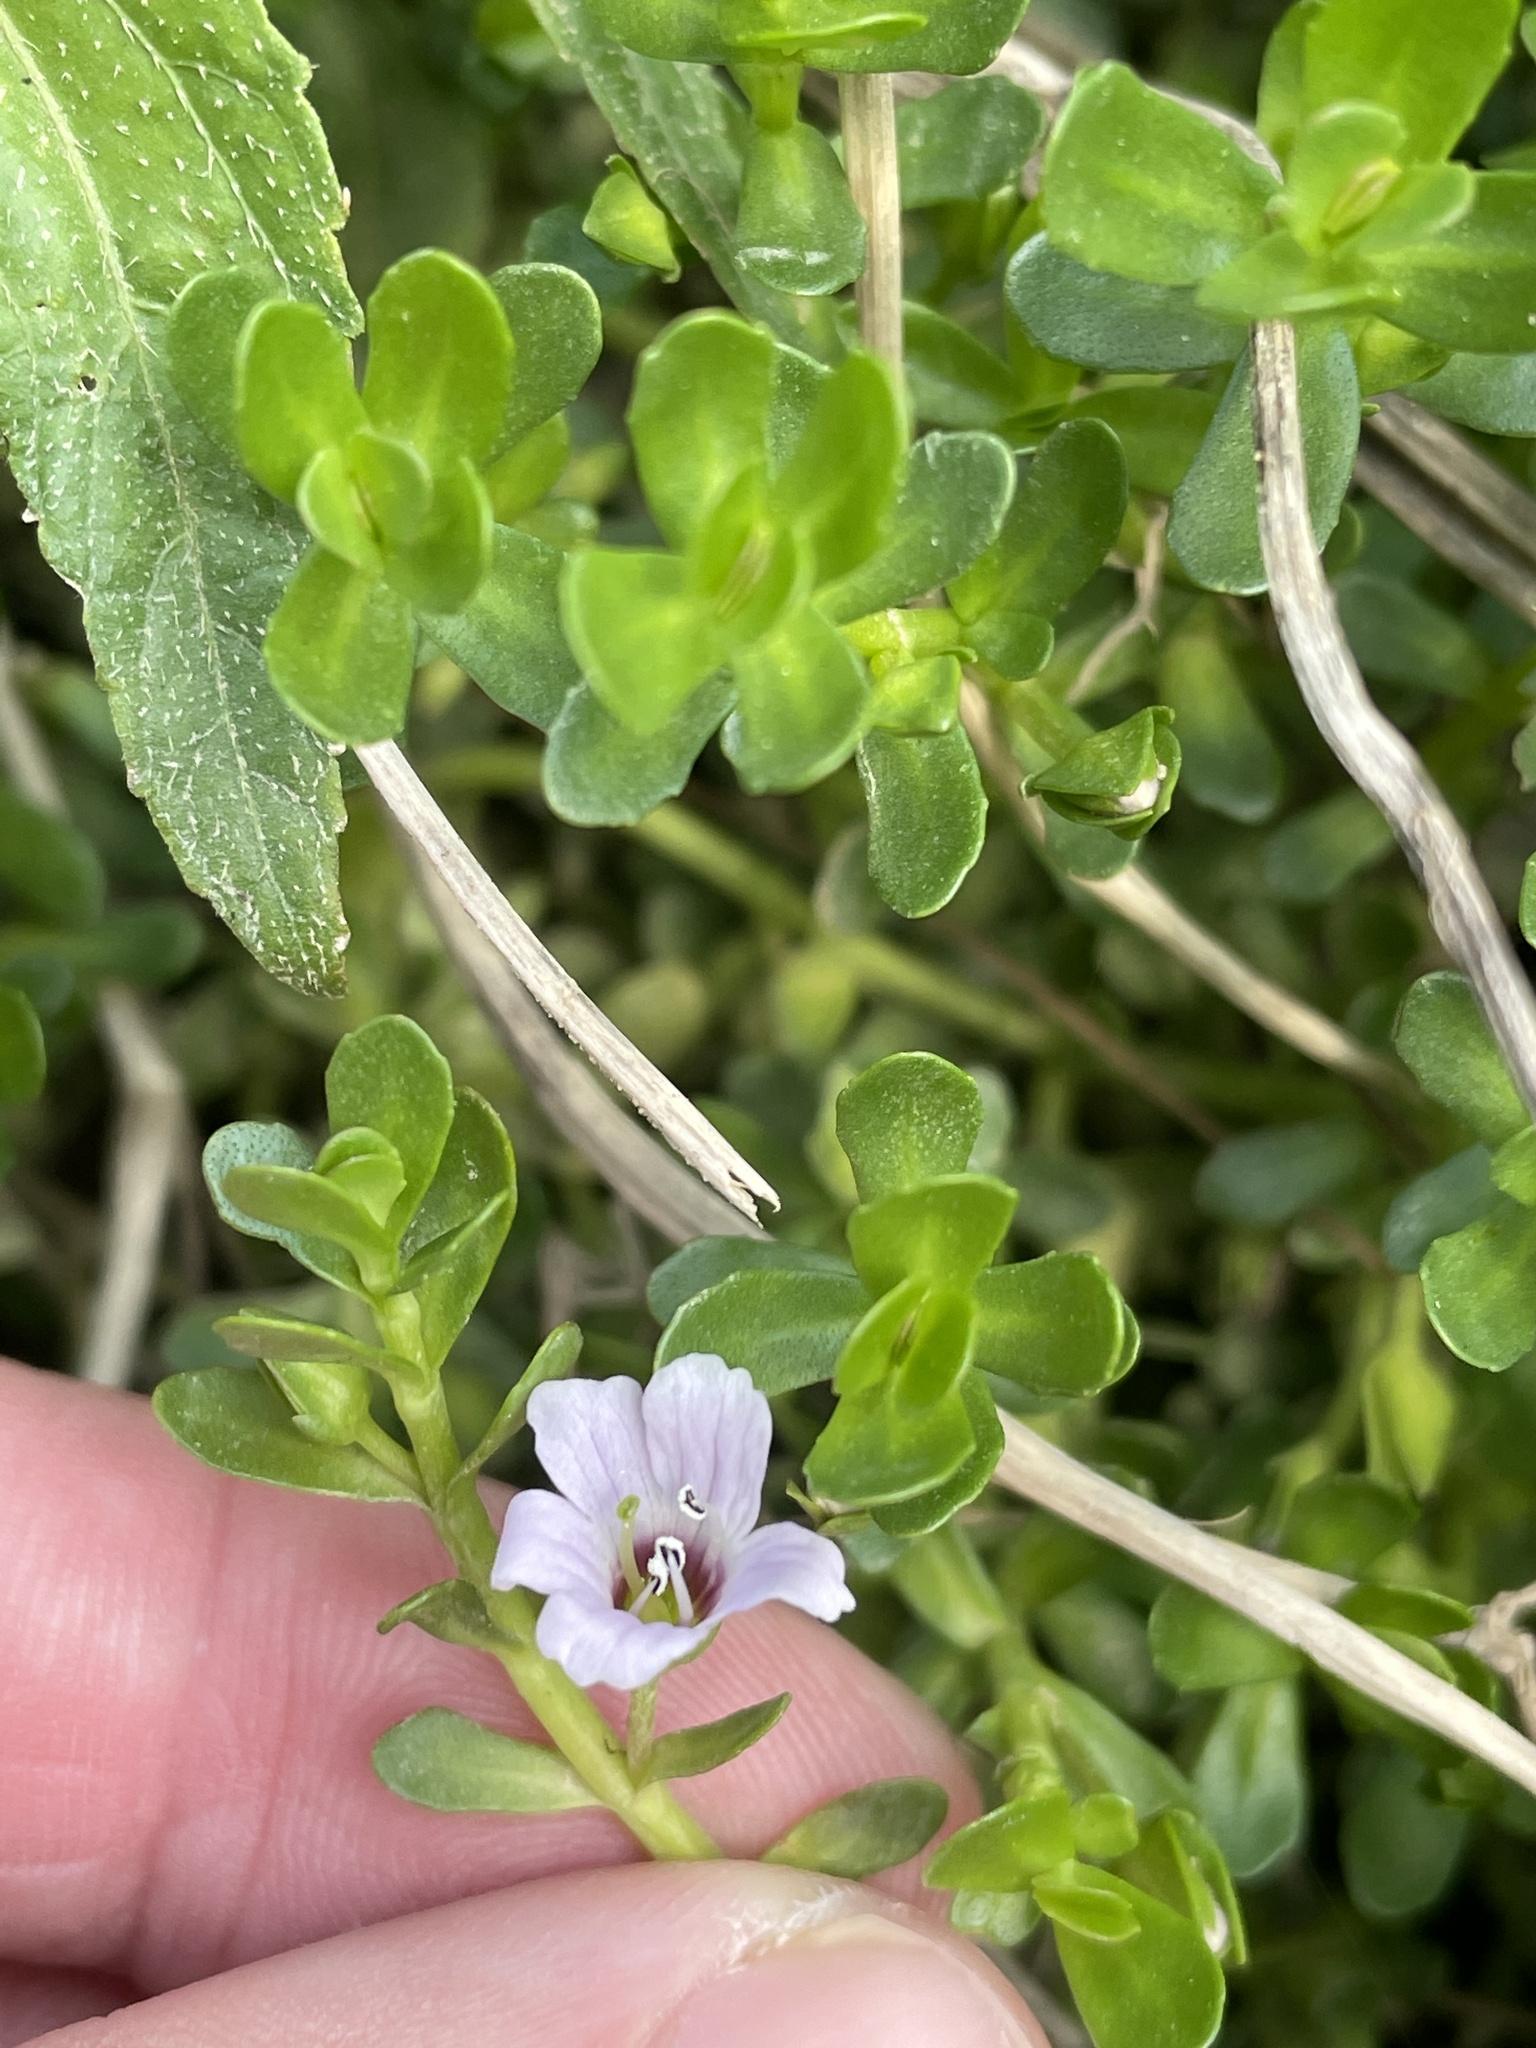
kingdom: Plantae
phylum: Tracheophyta
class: Magnoliopsida
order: Lamiales
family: Plantaginaceae
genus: Bacopa
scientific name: Bacopa monnieri
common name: Indian-pennywort
